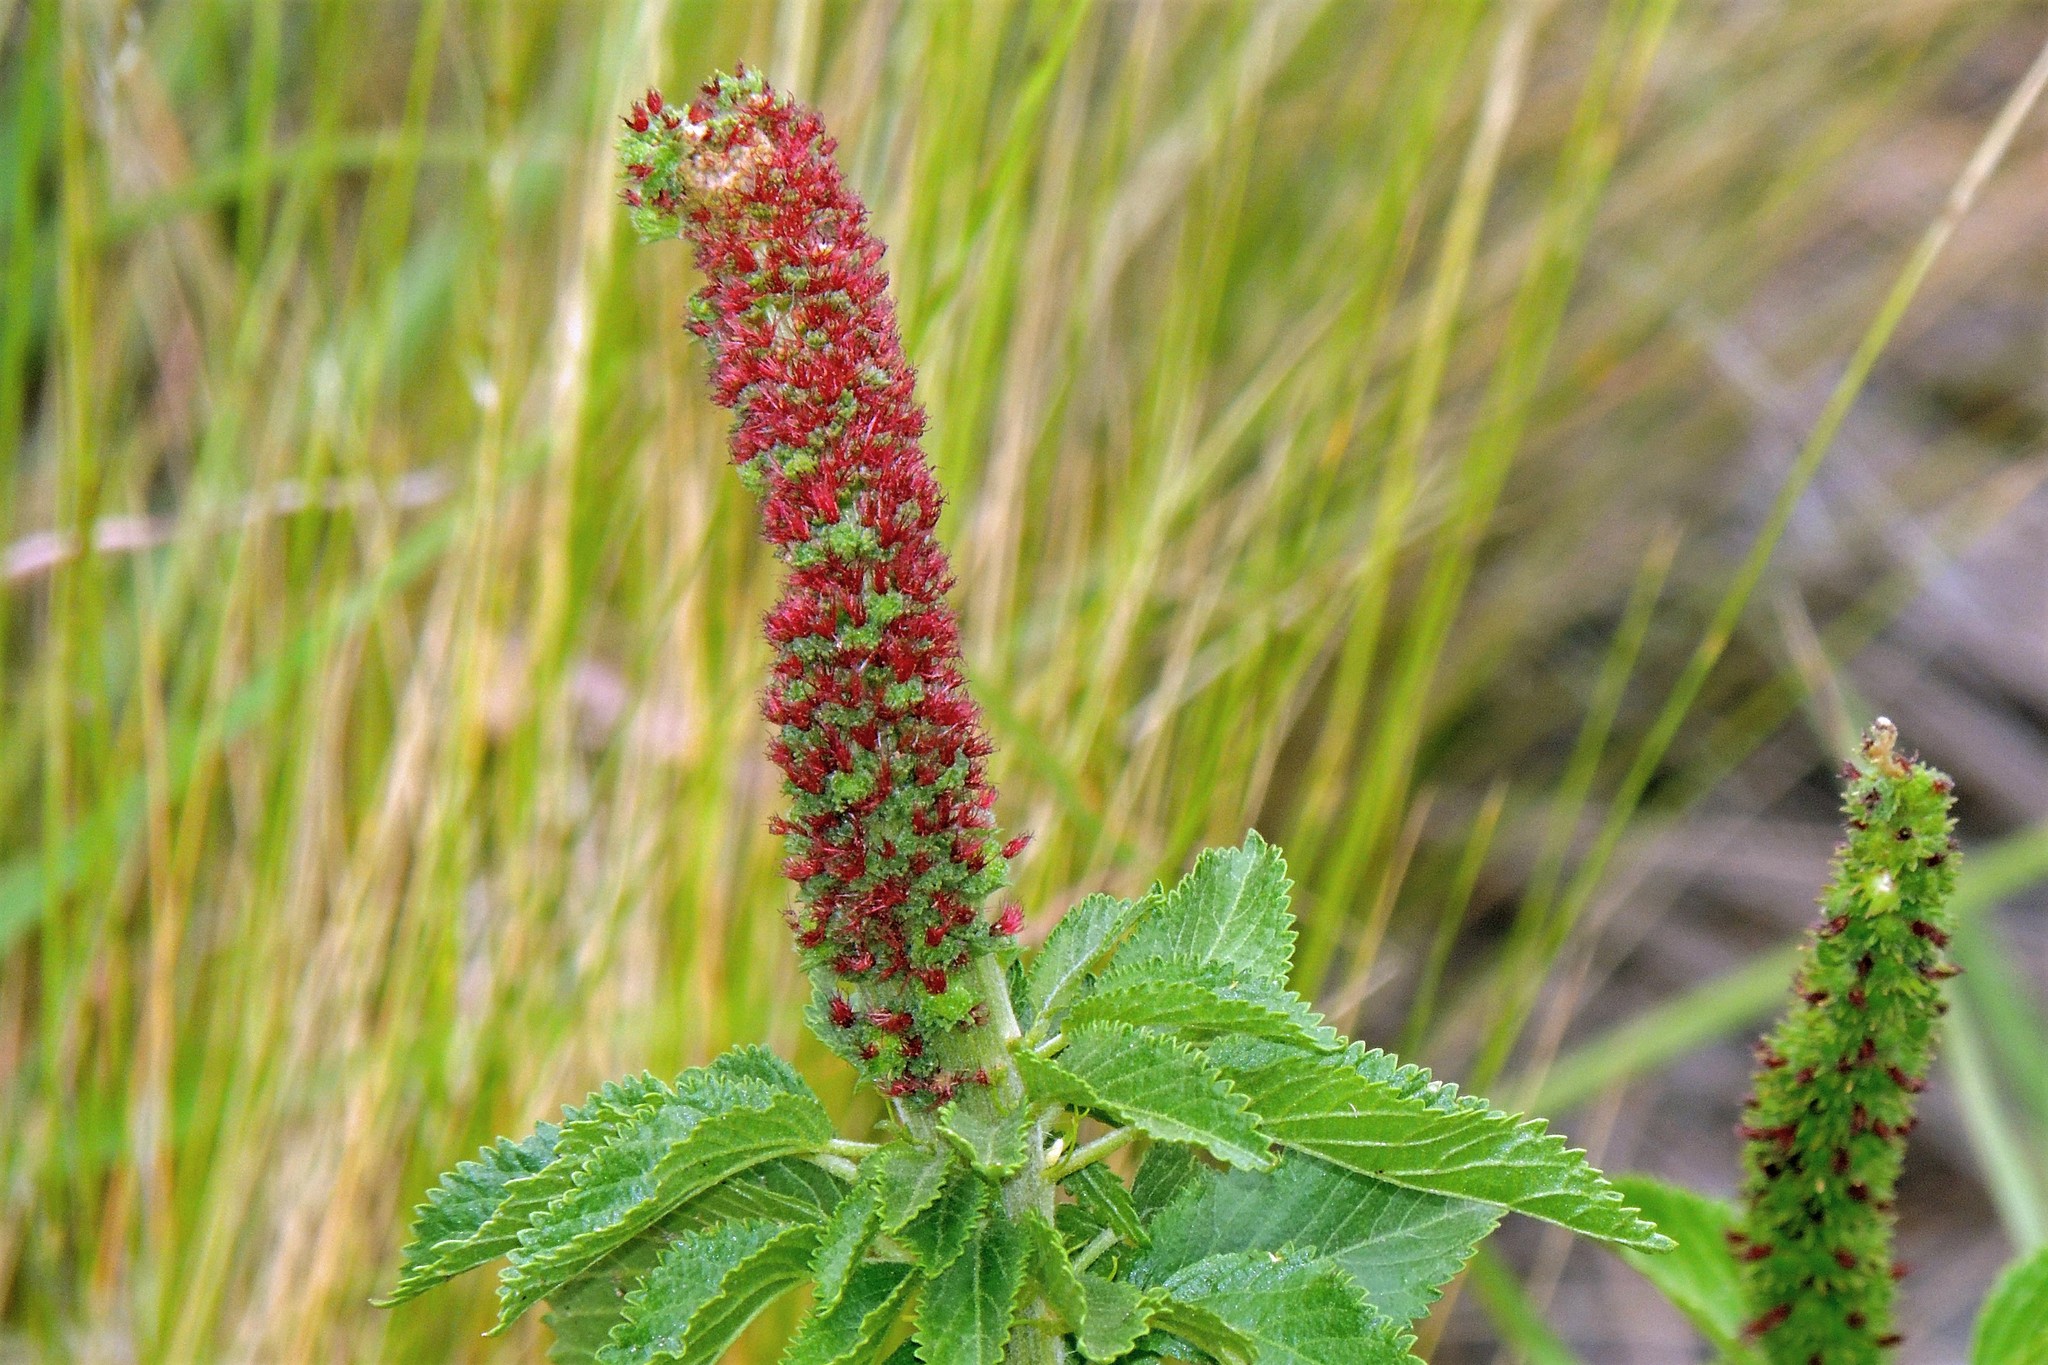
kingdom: Plantae
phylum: Tracheophyta
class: Magnoliopsida
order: Malpighiales
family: Euphorbiaceae
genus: Acalypha
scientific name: Acalypha communis
